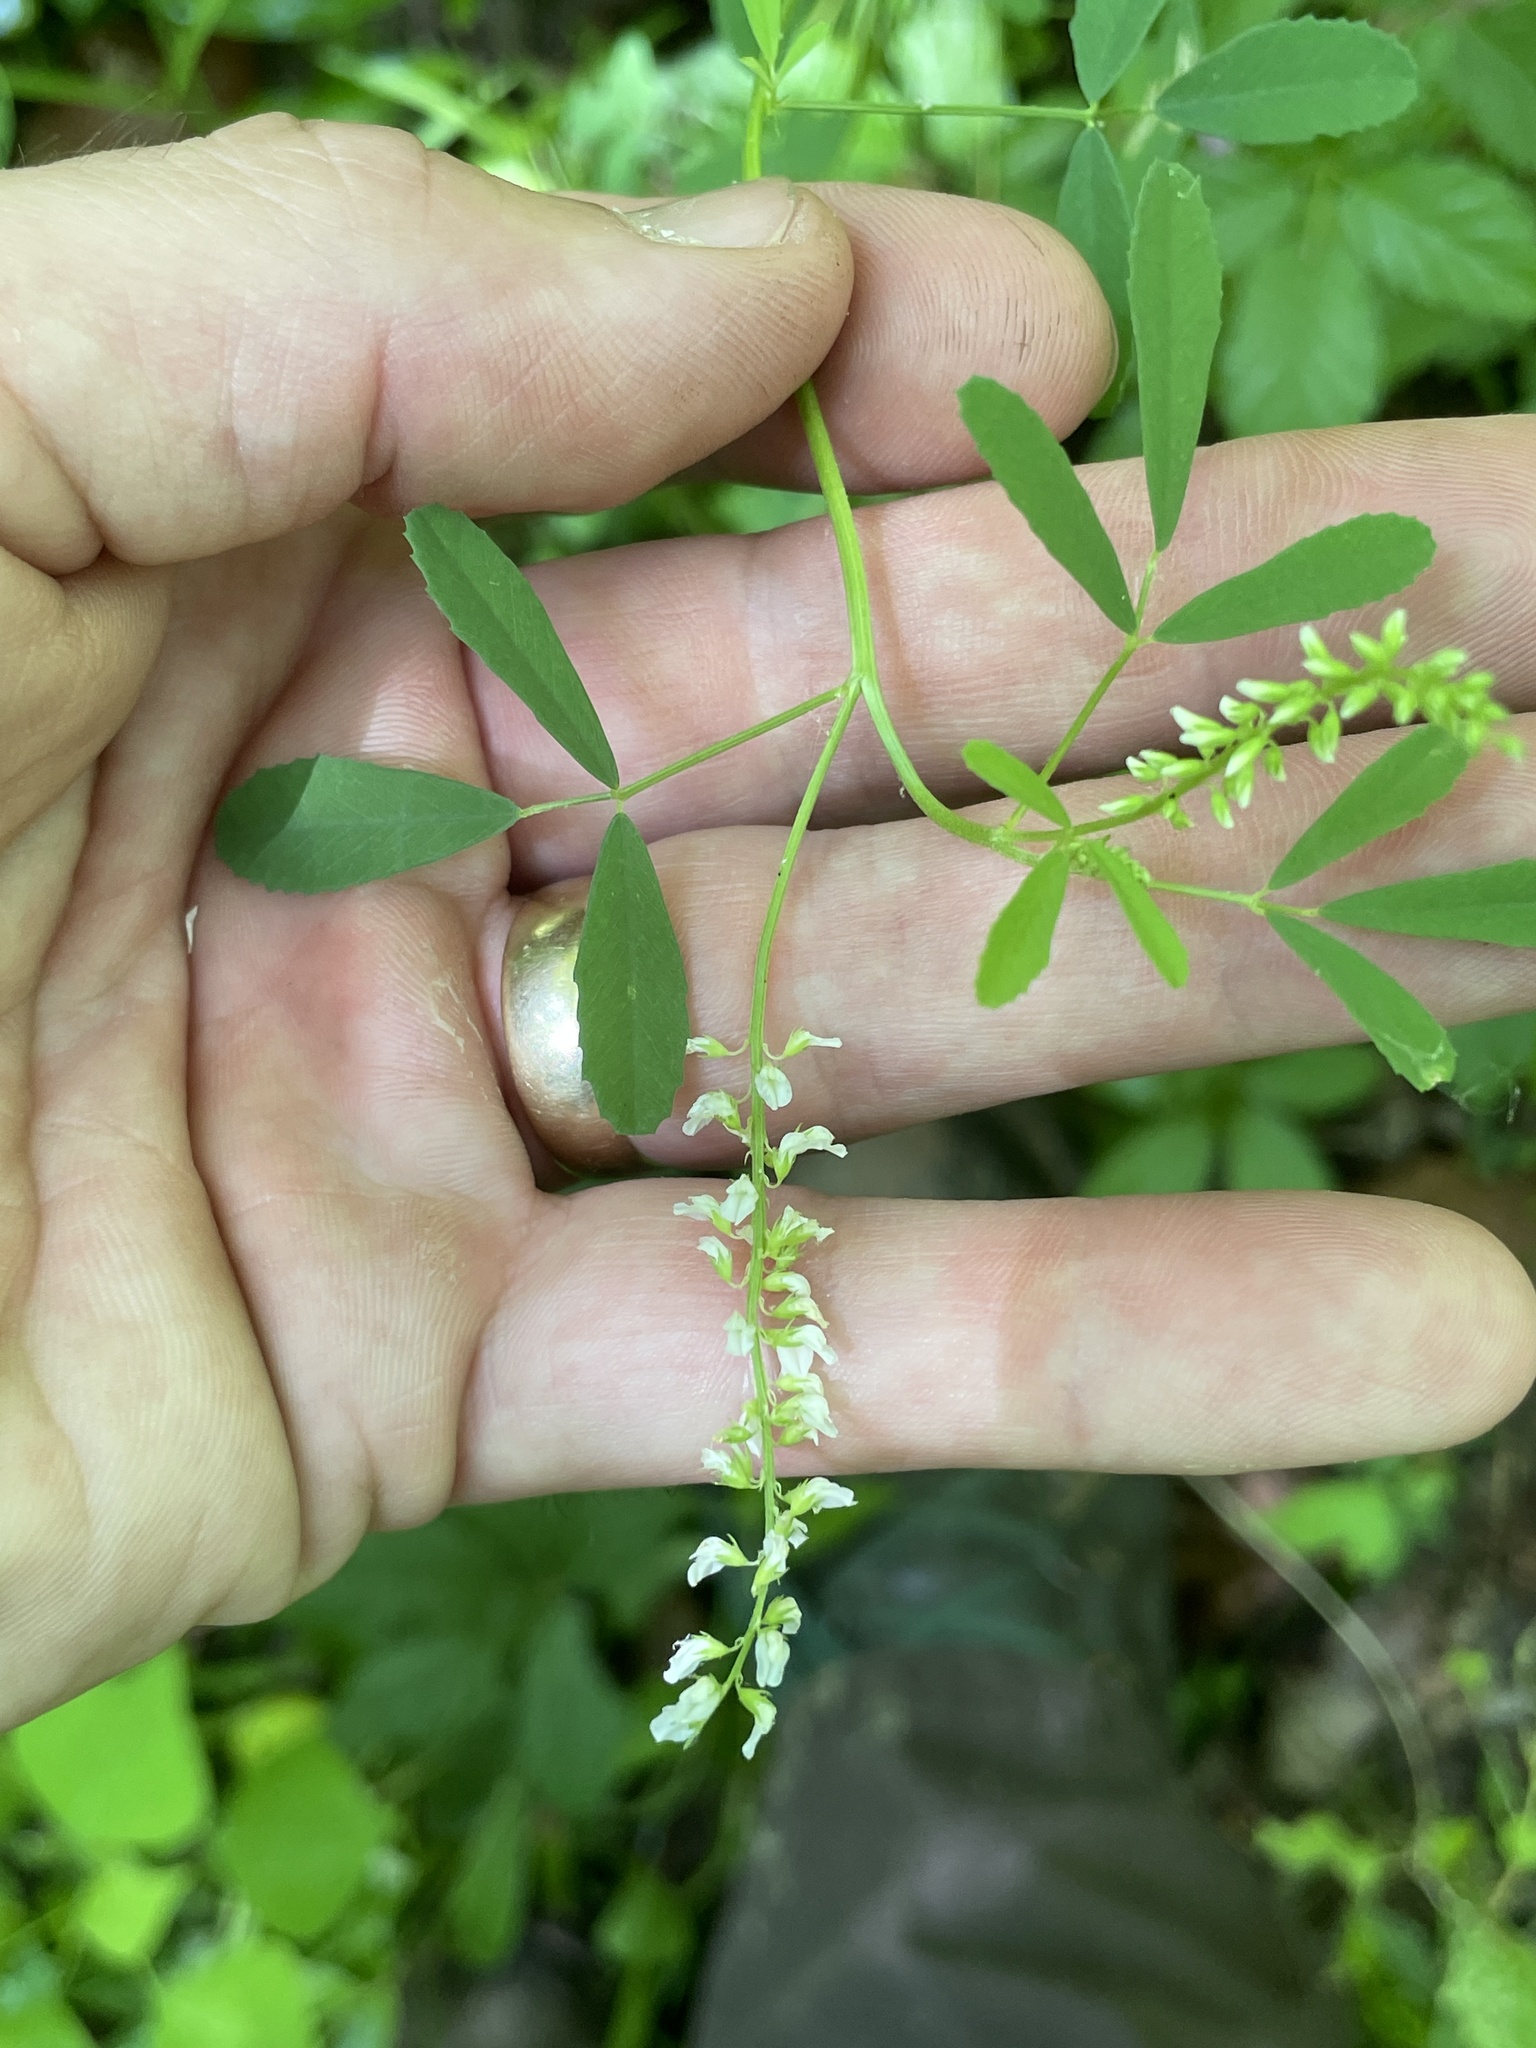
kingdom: Plantae
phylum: Tracheophyta
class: Magnoliopsida
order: Fabales
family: Fabaceae
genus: Melilotus
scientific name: Melilotus albus
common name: White melilot
